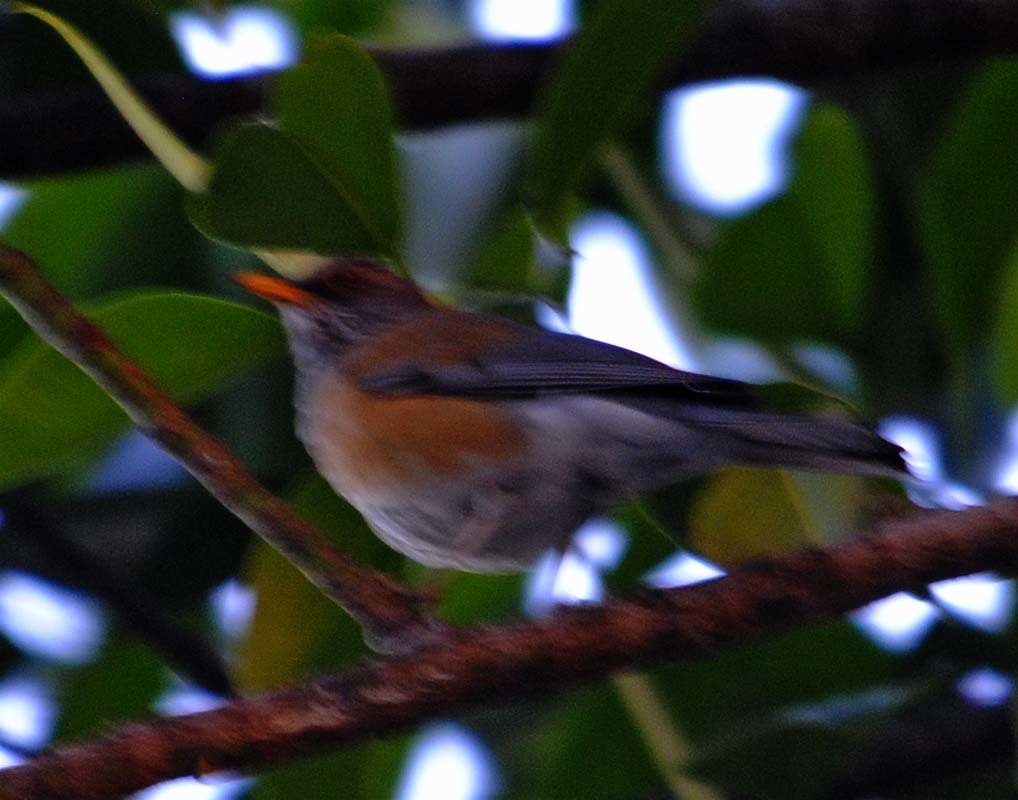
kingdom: Animalia
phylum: Chordata
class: Aves
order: Passeriformes
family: Turdidae
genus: Turdus
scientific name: Turdus rufopalliatus
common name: Rufous-backed robin
